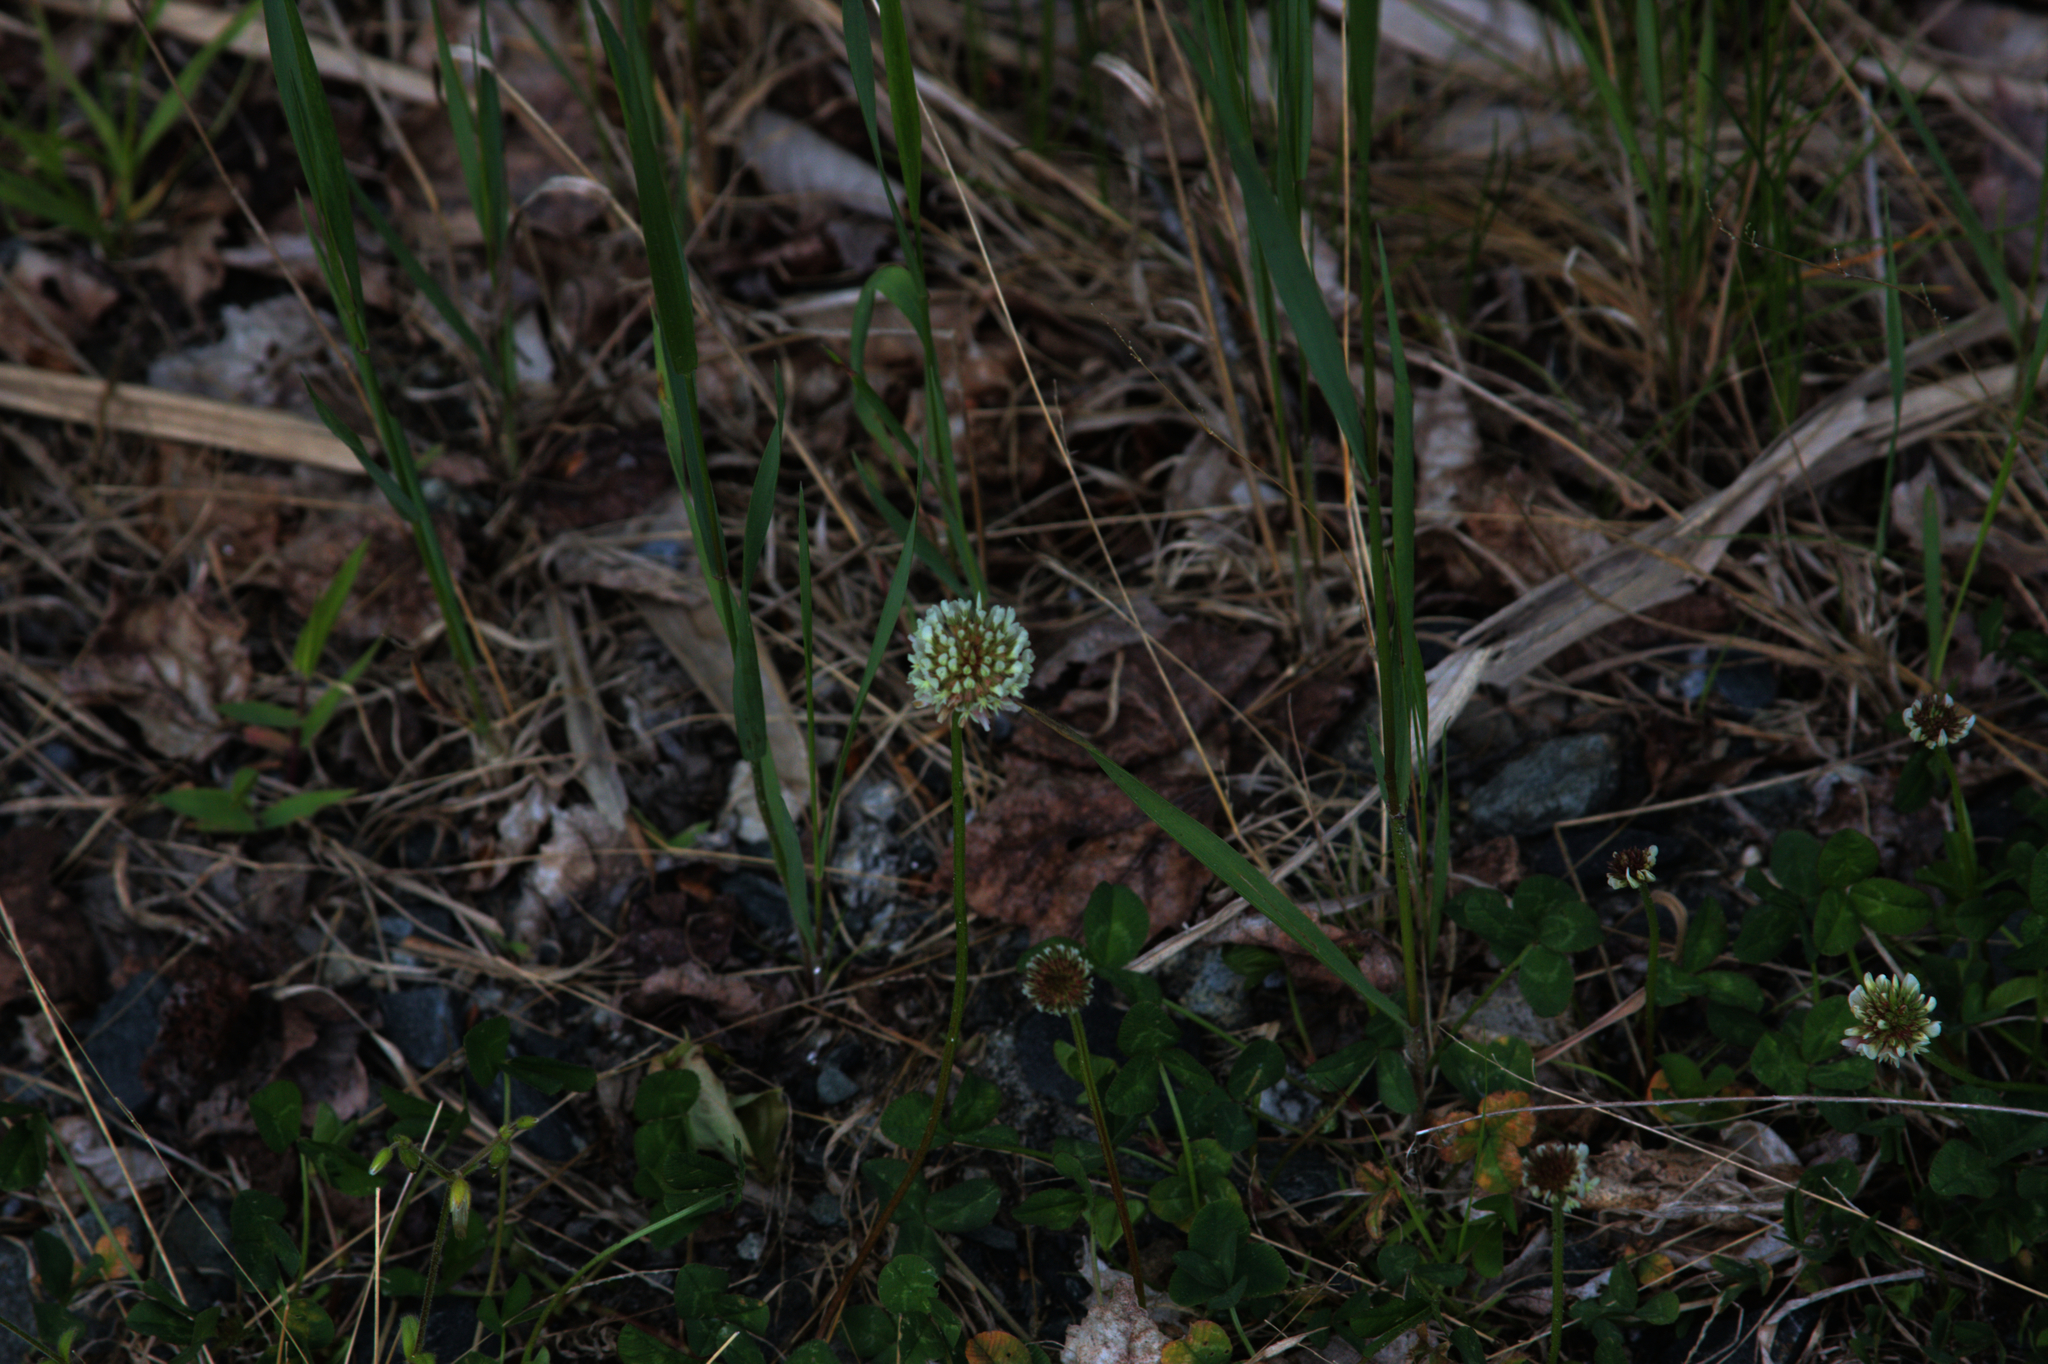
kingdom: Plantae
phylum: Tracheophyta
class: Magnoliopsida
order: Fabales
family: Fabaceae
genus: Trifolium
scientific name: Trifolium repens
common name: White clover
